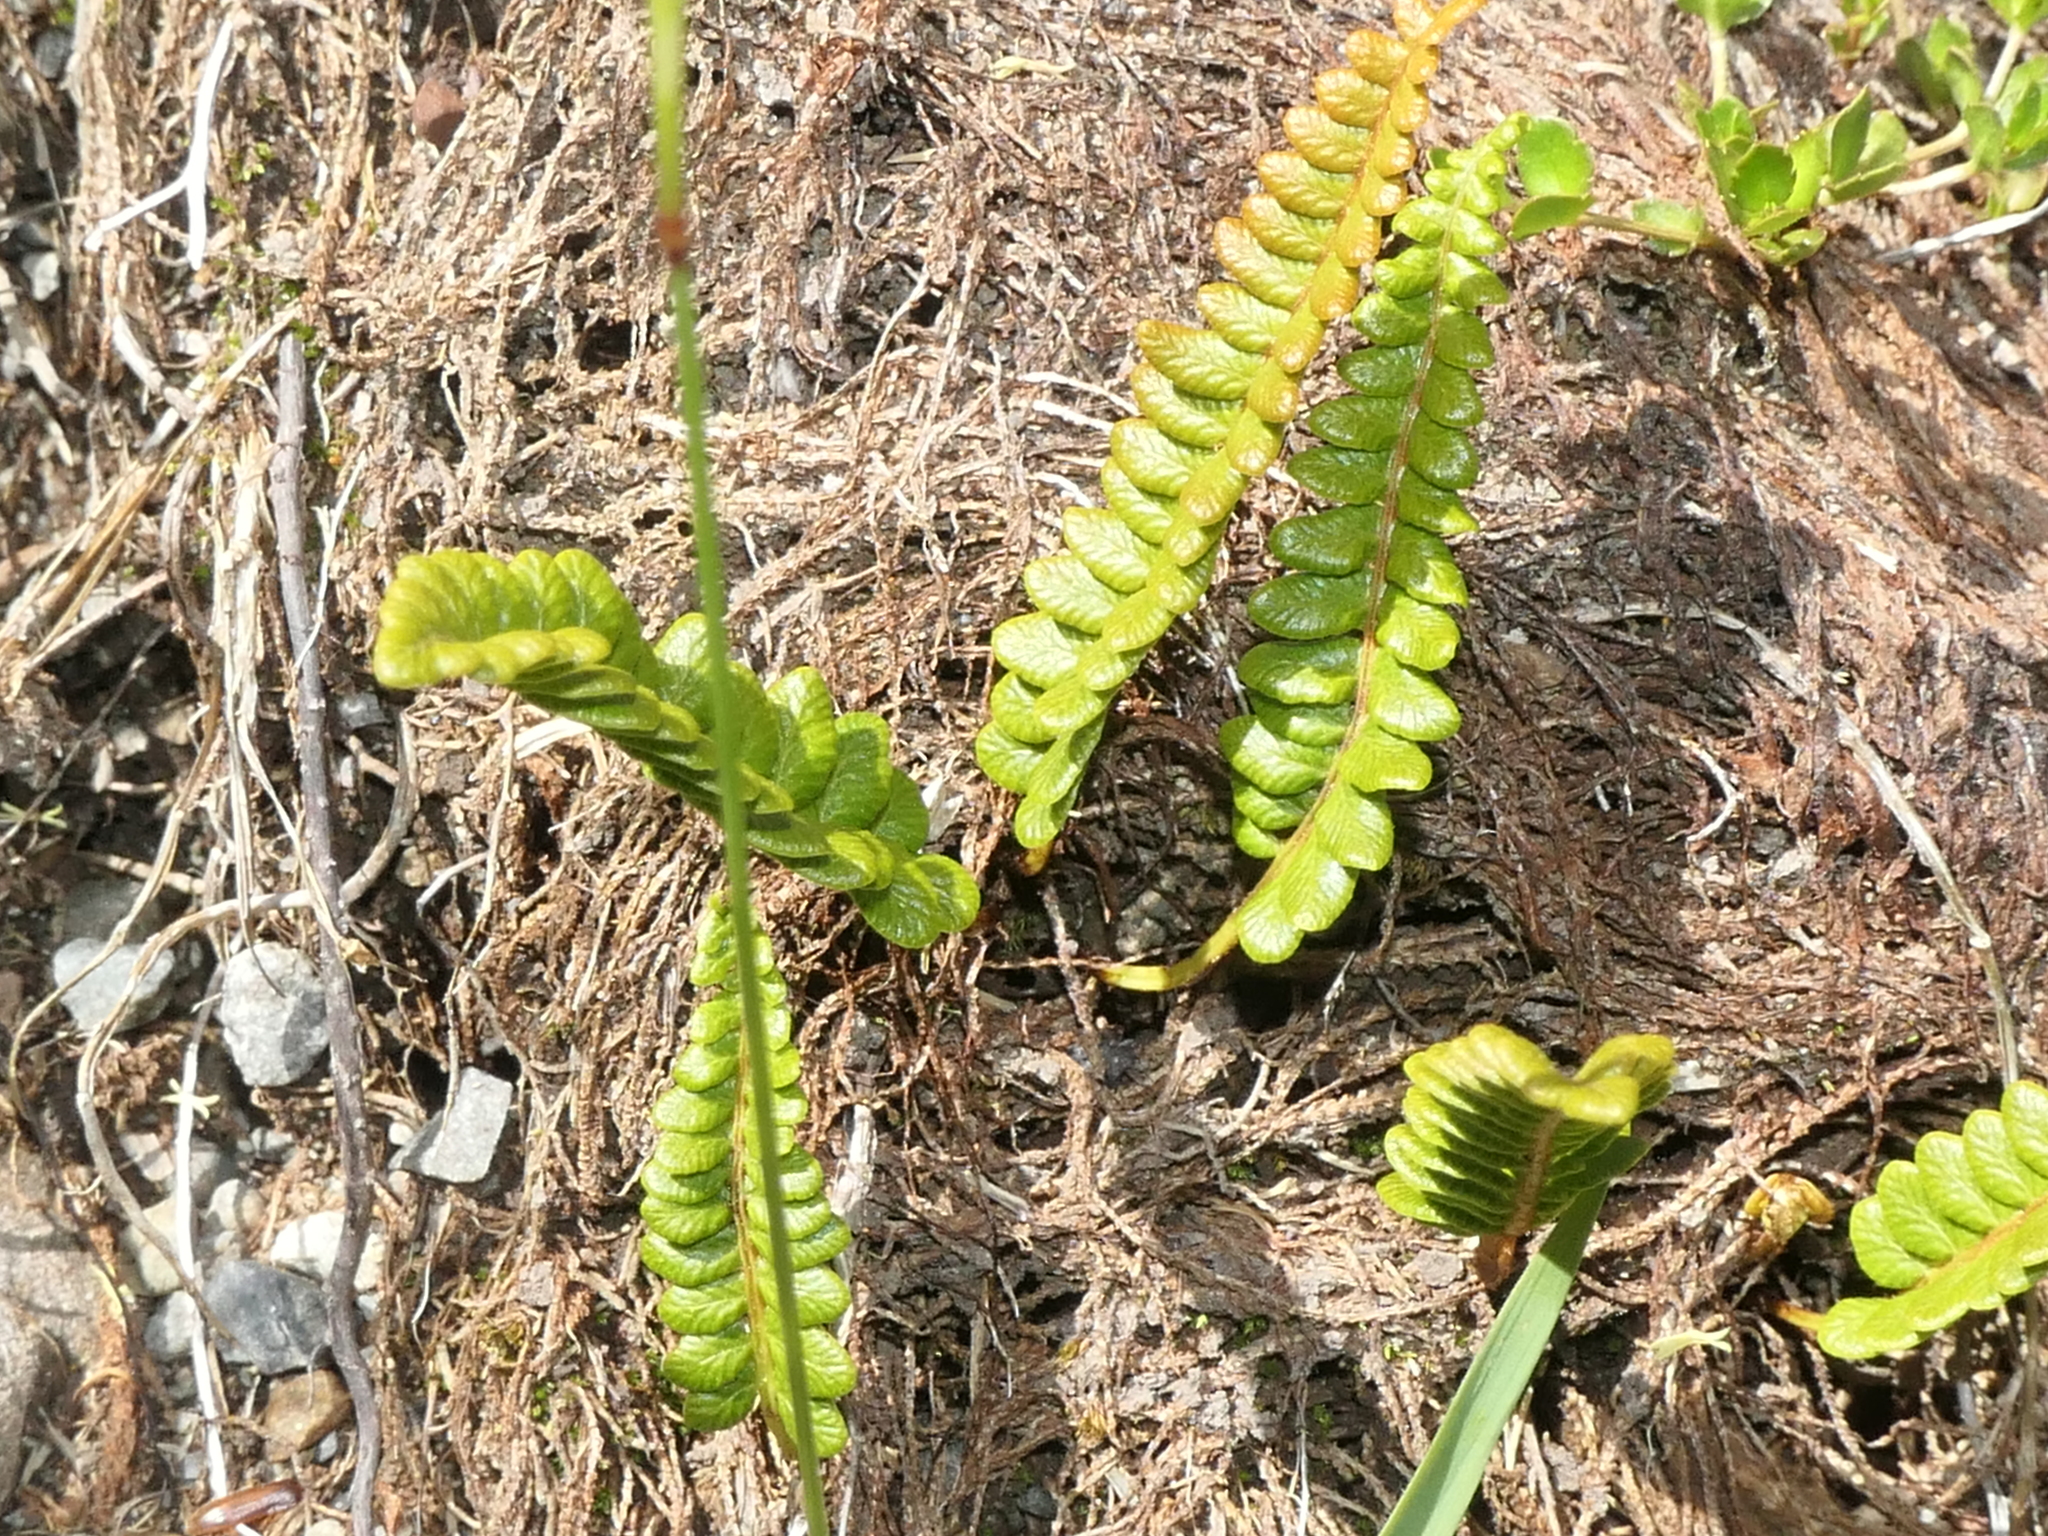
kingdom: Plantae
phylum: Tracheophyta
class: Polypodiopsida
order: Polypodiales
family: Blechnaceae
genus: Austroblechnum
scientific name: Austroblechnum penna-marina
